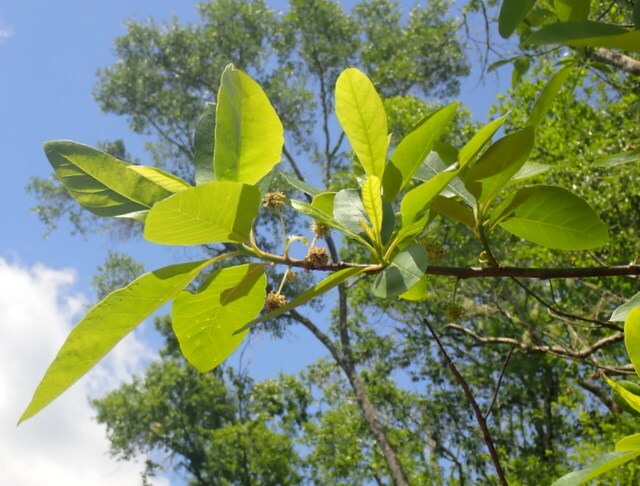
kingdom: Plantae
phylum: Tracheophyta
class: Magnoliopsida
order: Cornales
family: Nyssaceae
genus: Nyssa
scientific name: Nyssa ogeche
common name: Ogeechee tupelo
